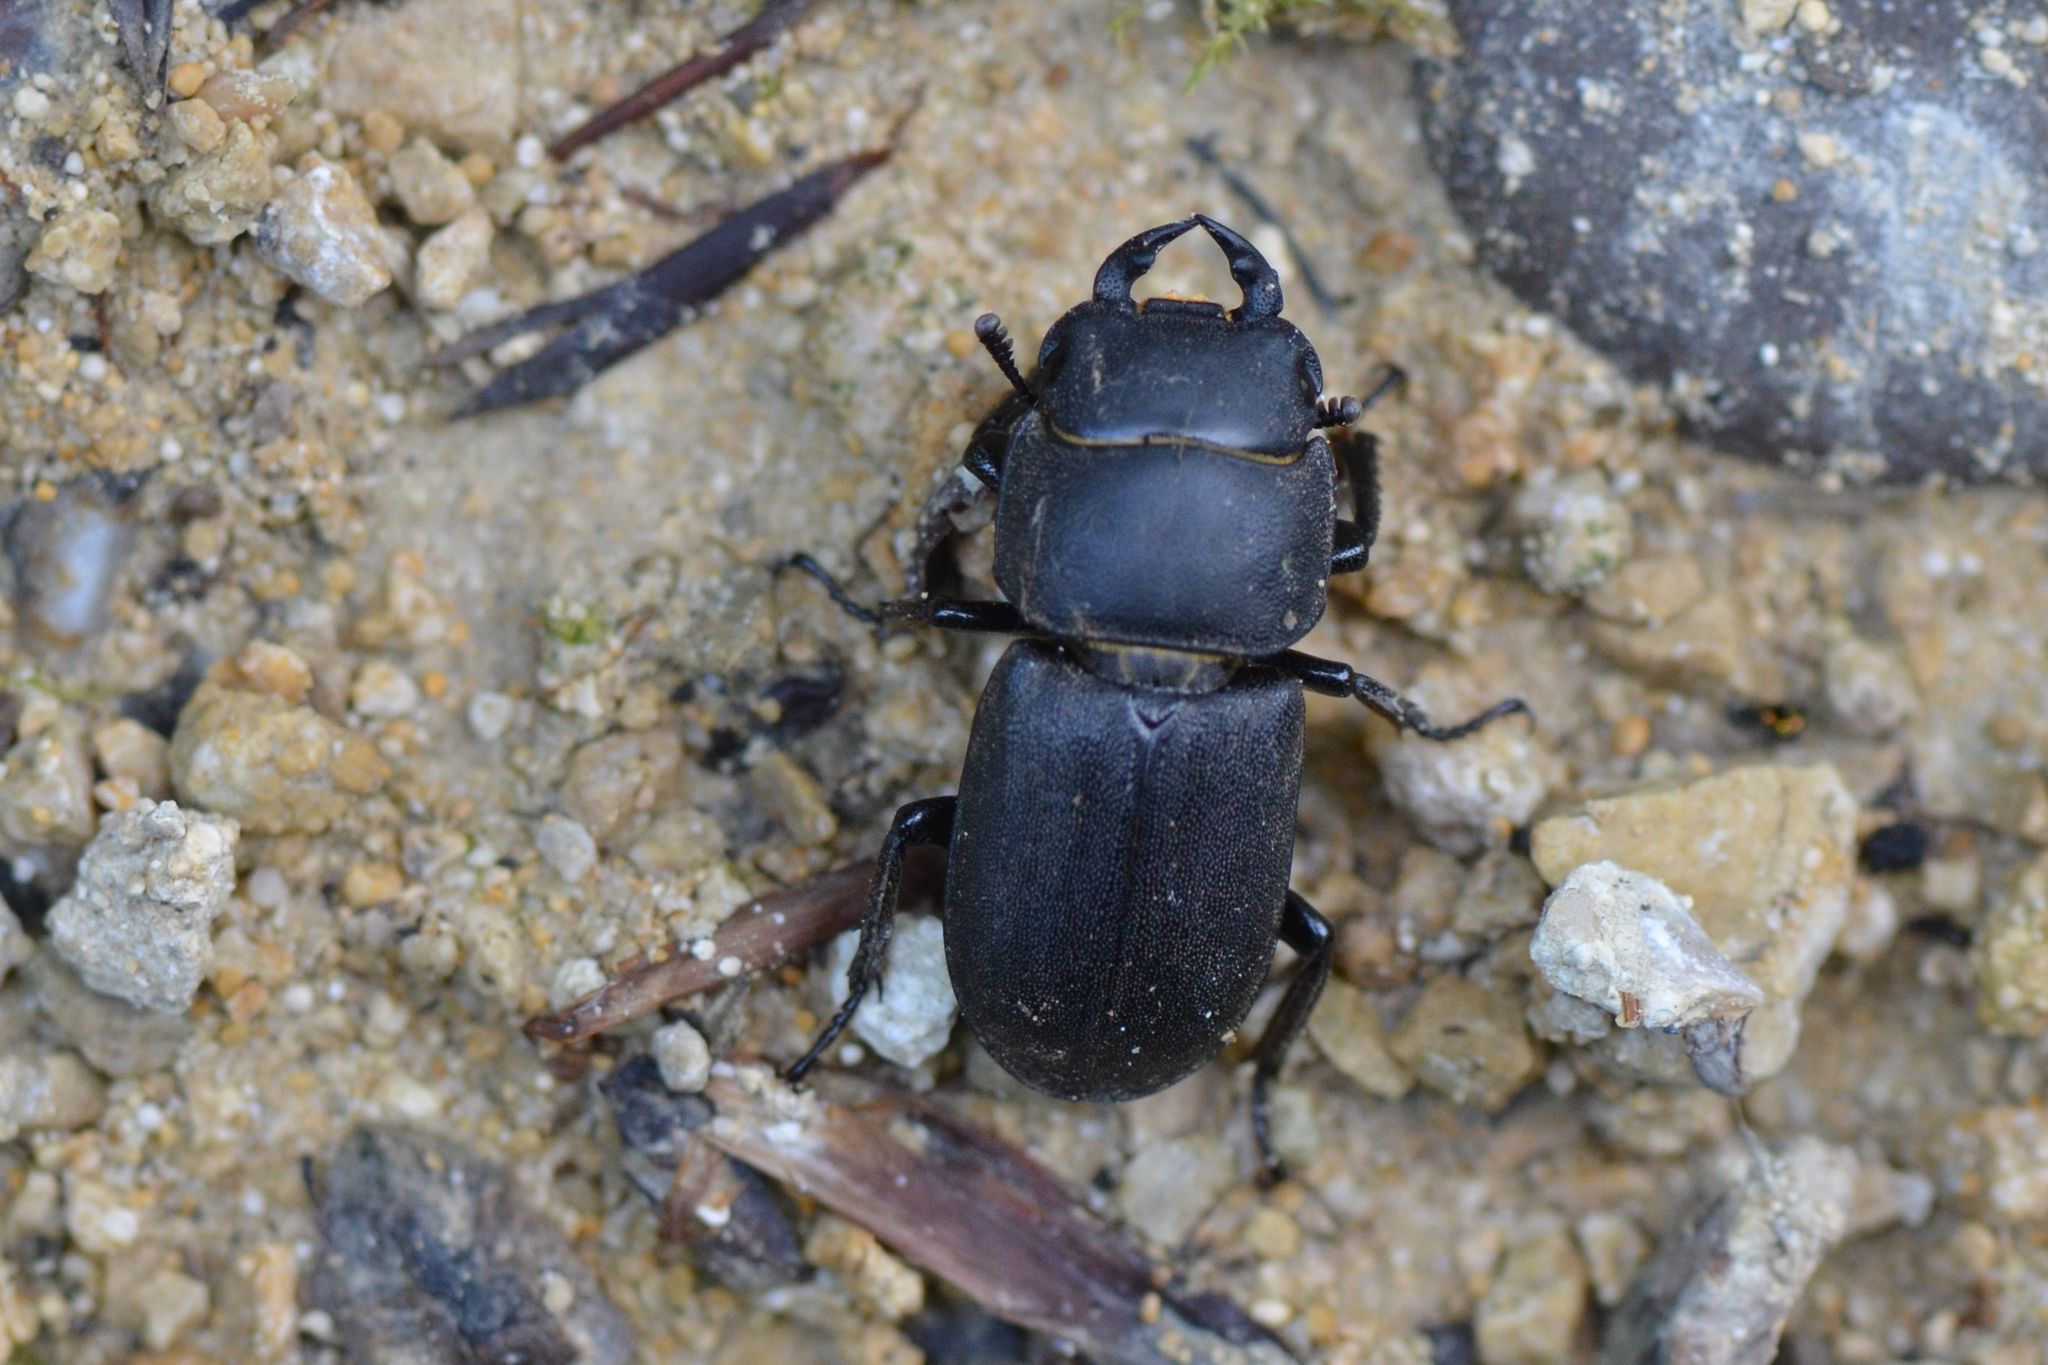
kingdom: Animalia
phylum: Arthropoda
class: Insecta
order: Coleoptera
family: Lucanidae
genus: Dorcus
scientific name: Dorcus parallelipipedus
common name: Lesser stag beetle
